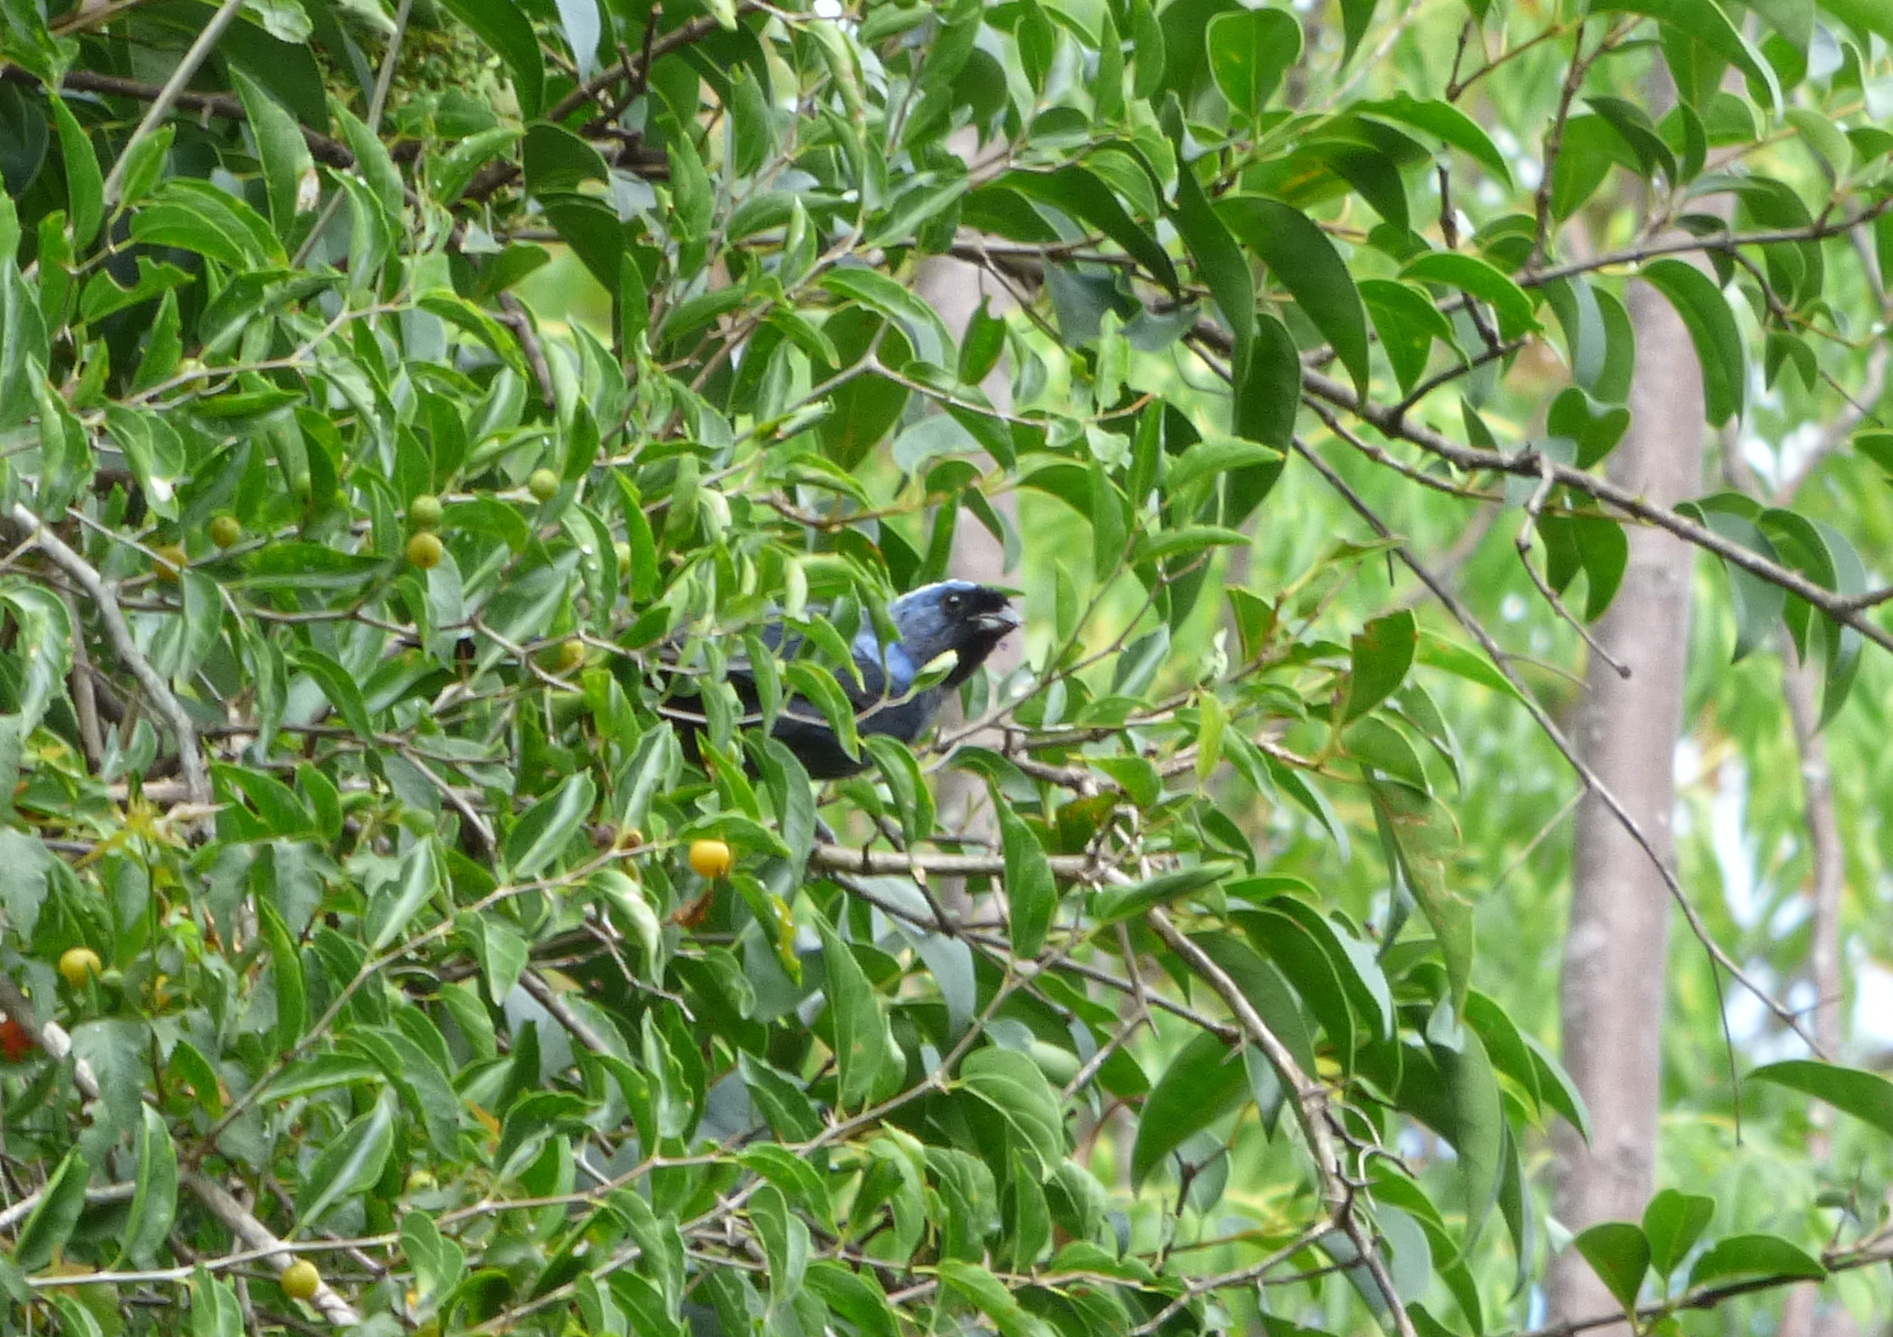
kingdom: Animalia
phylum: Chordata
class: Aves
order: Passeriformes
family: Thraupidae
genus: Stephanophorus
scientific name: Stephanophorus diadematus
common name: Diademed tanager
